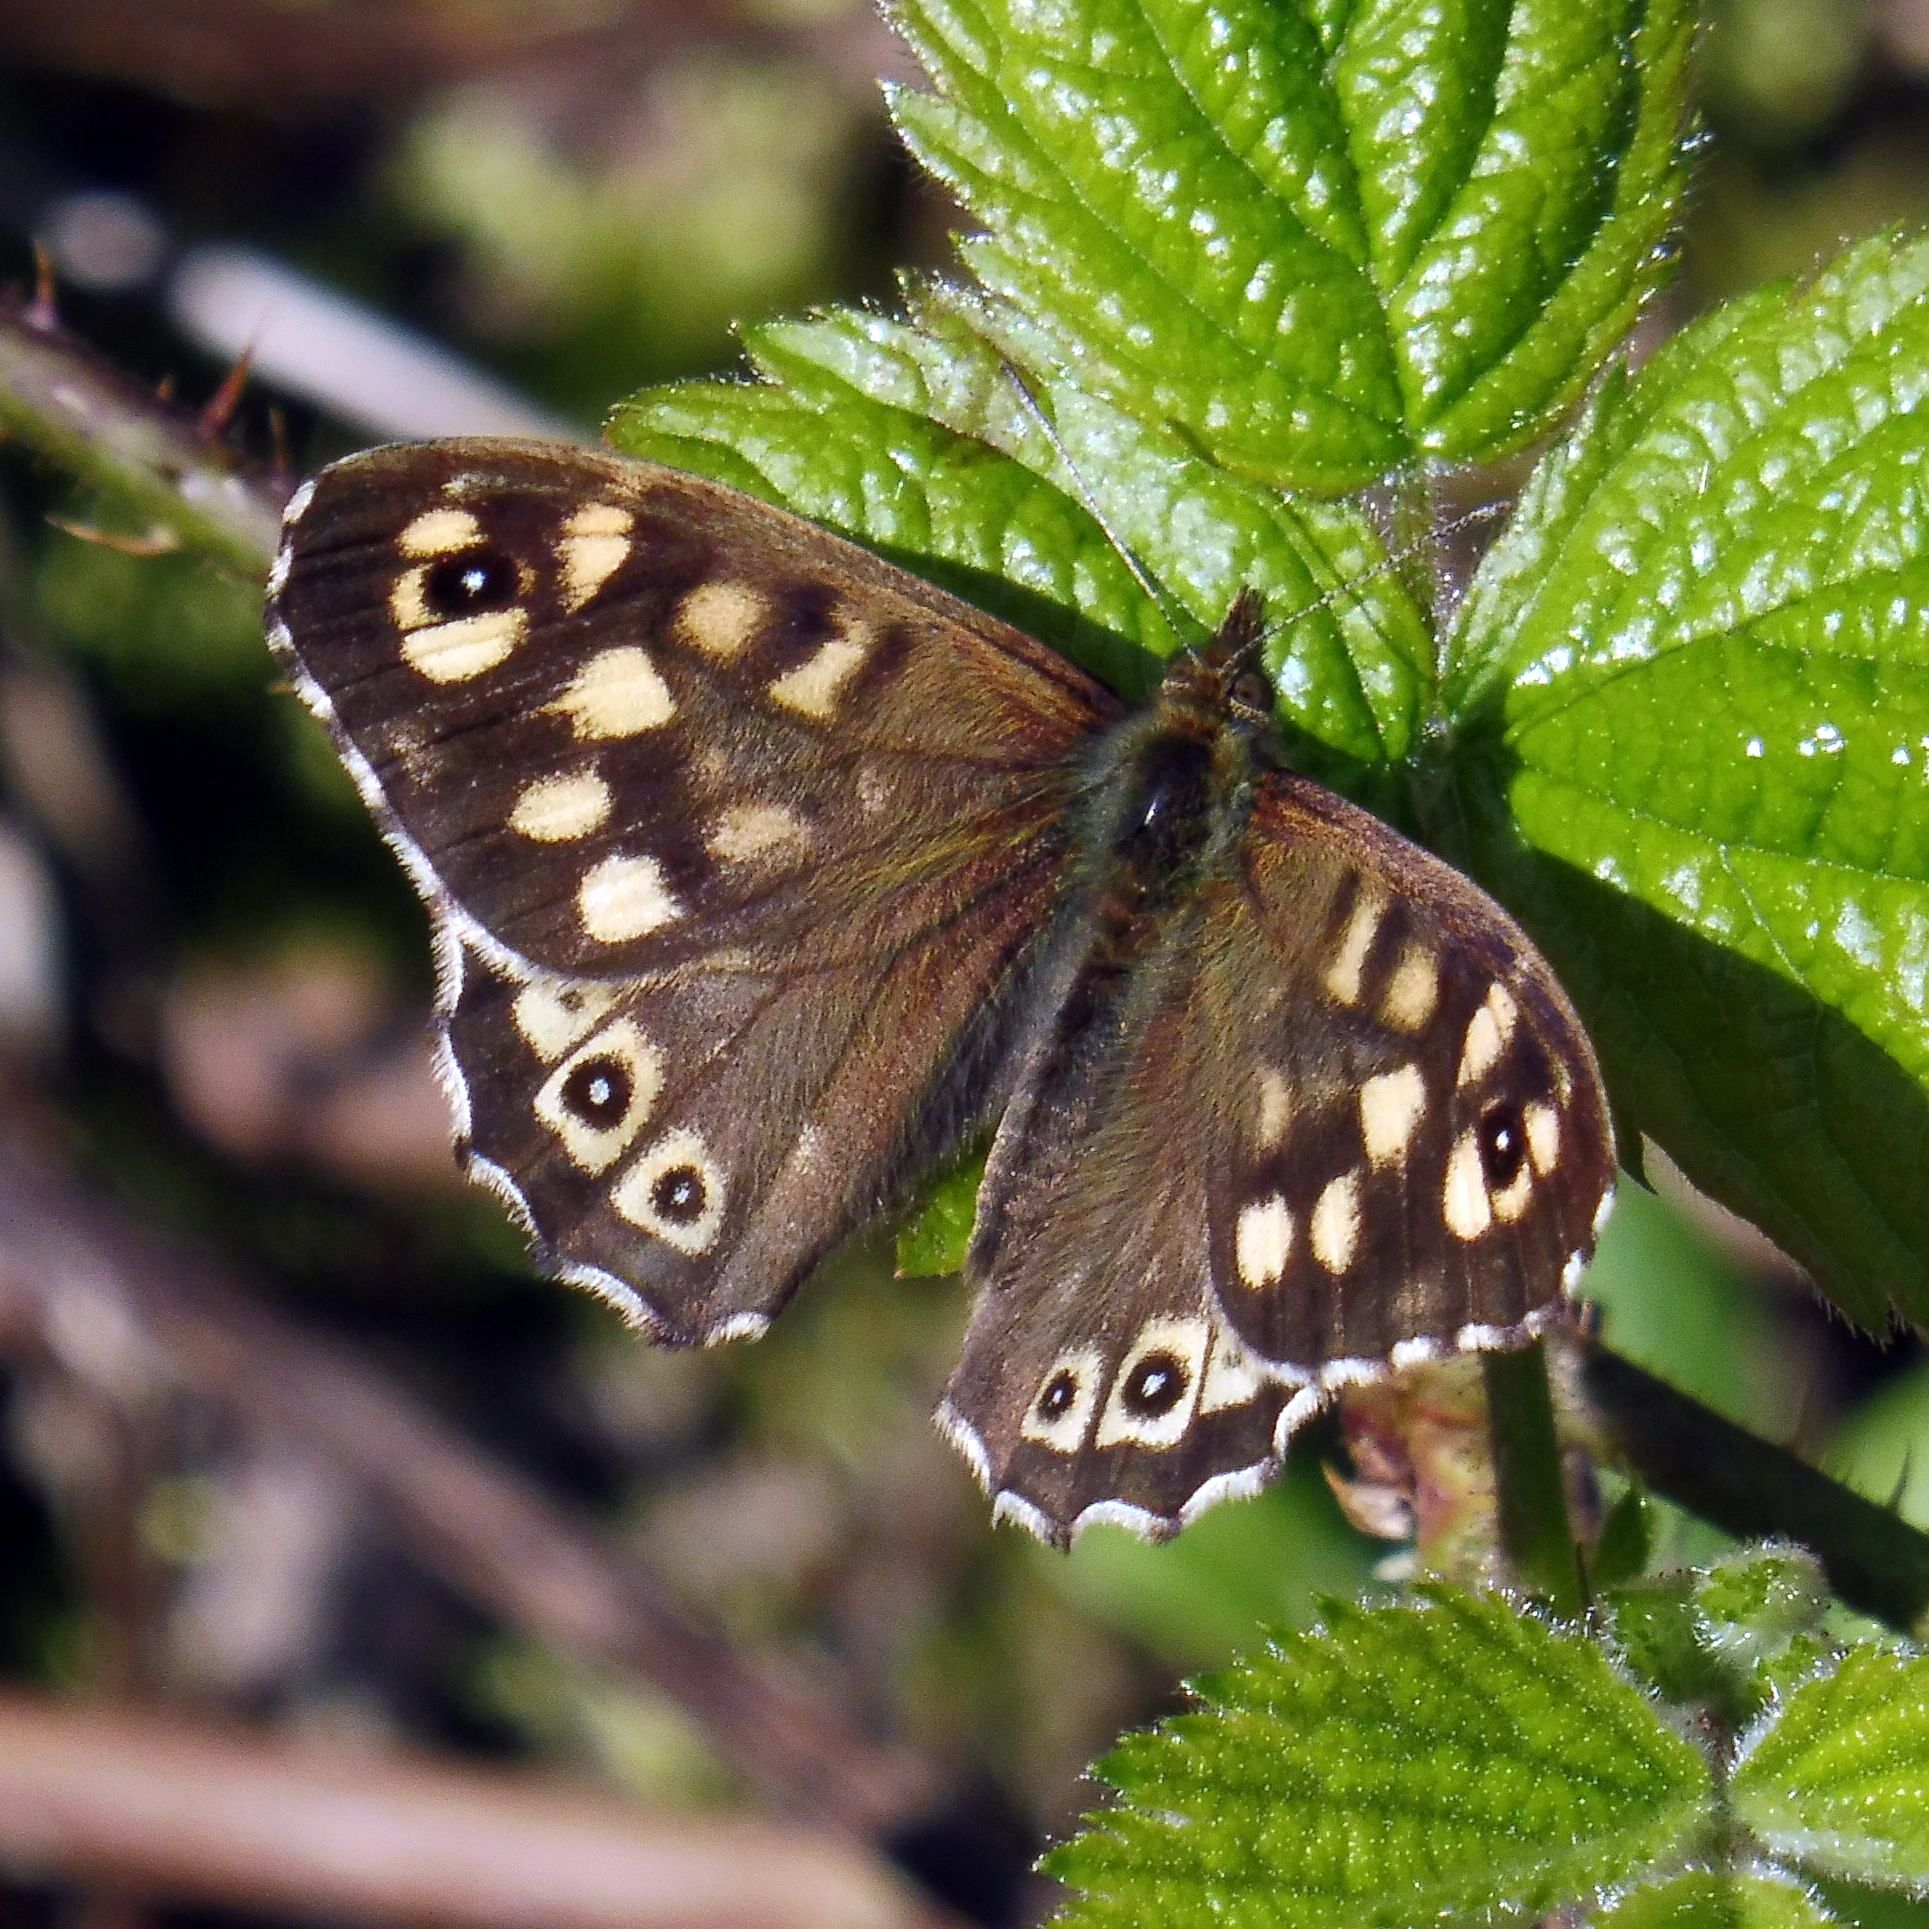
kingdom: Animalia
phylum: Arthropoda
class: Insecta
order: Lepidoptera
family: Nymphalidae
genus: Pararge
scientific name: Pararge aegeria
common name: Speckled wood
